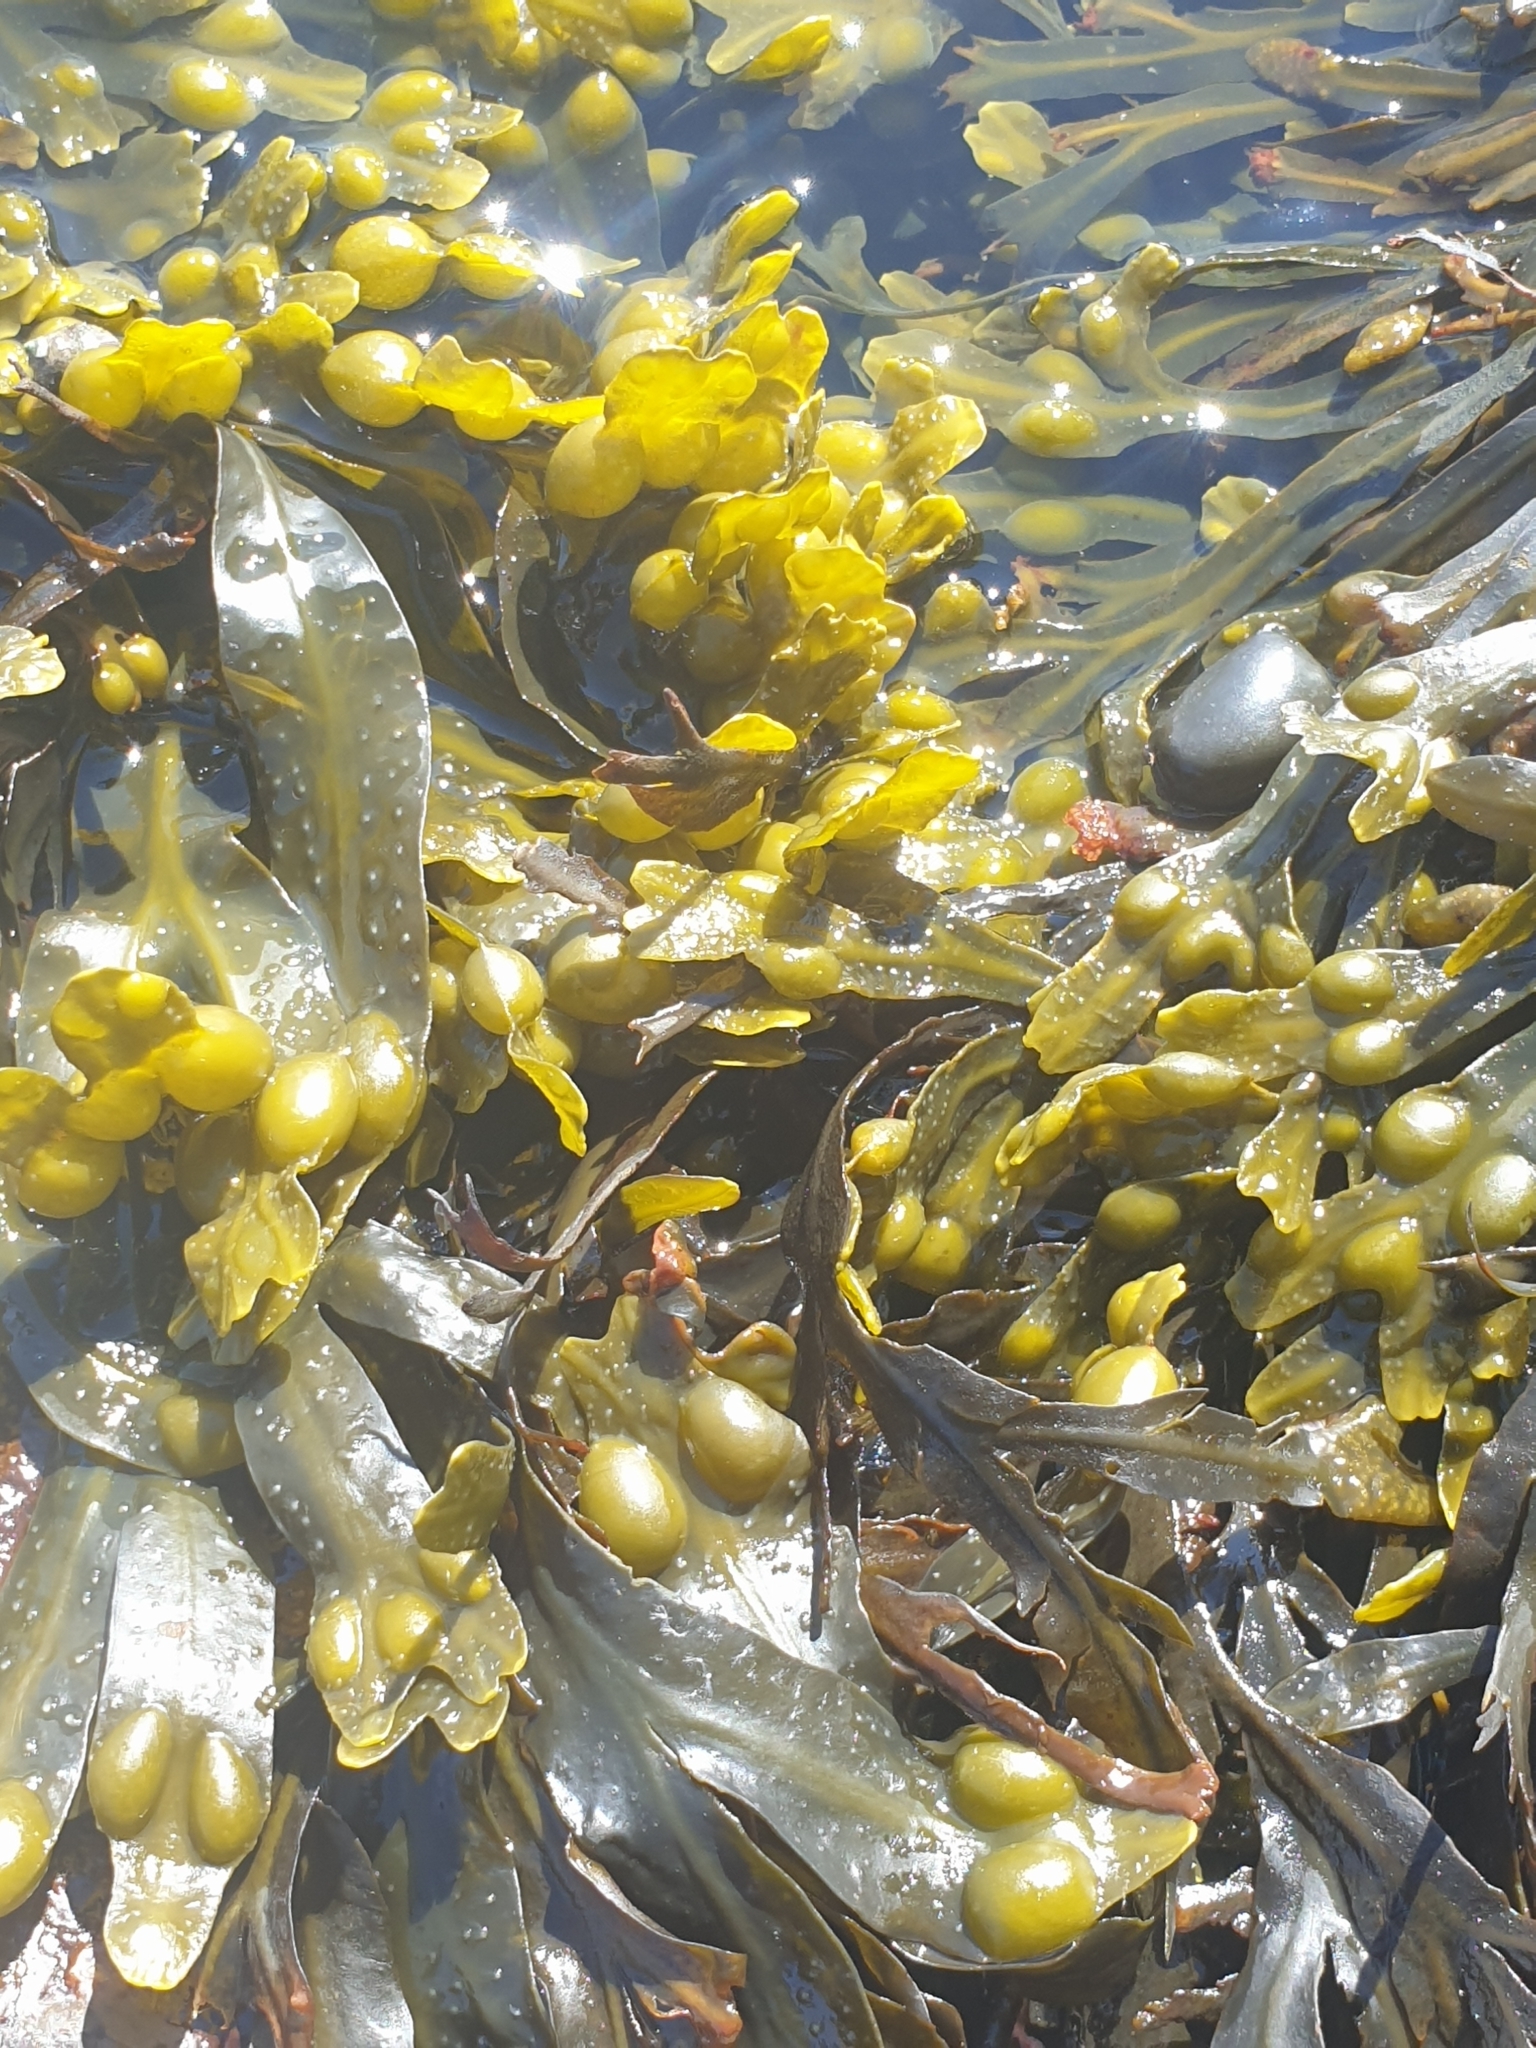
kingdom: Chromista
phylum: Ochrophyta
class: Phaeophyceae
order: Fucales
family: Fucaceae
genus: Fucus
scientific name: Fucus vesiculosus
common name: Bladder wrack
